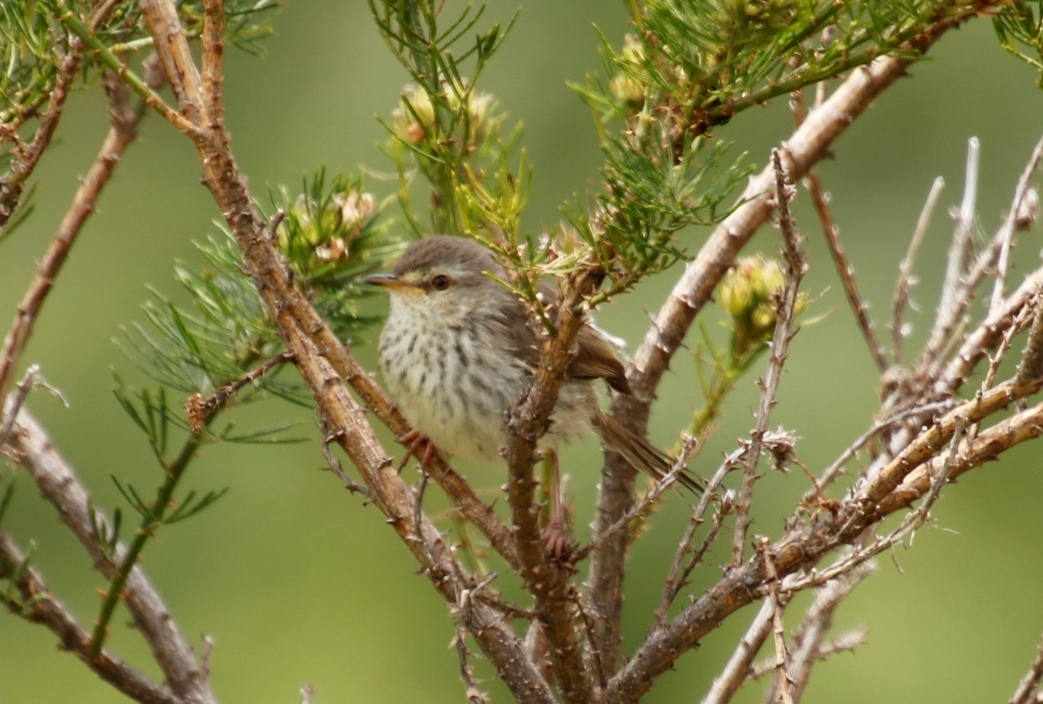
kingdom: Animalia
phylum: Chordata
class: Aves
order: Passeriformes
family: Cisticolidae
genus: Prinia
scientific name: Prinia maculosa
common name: Karoo prinia
